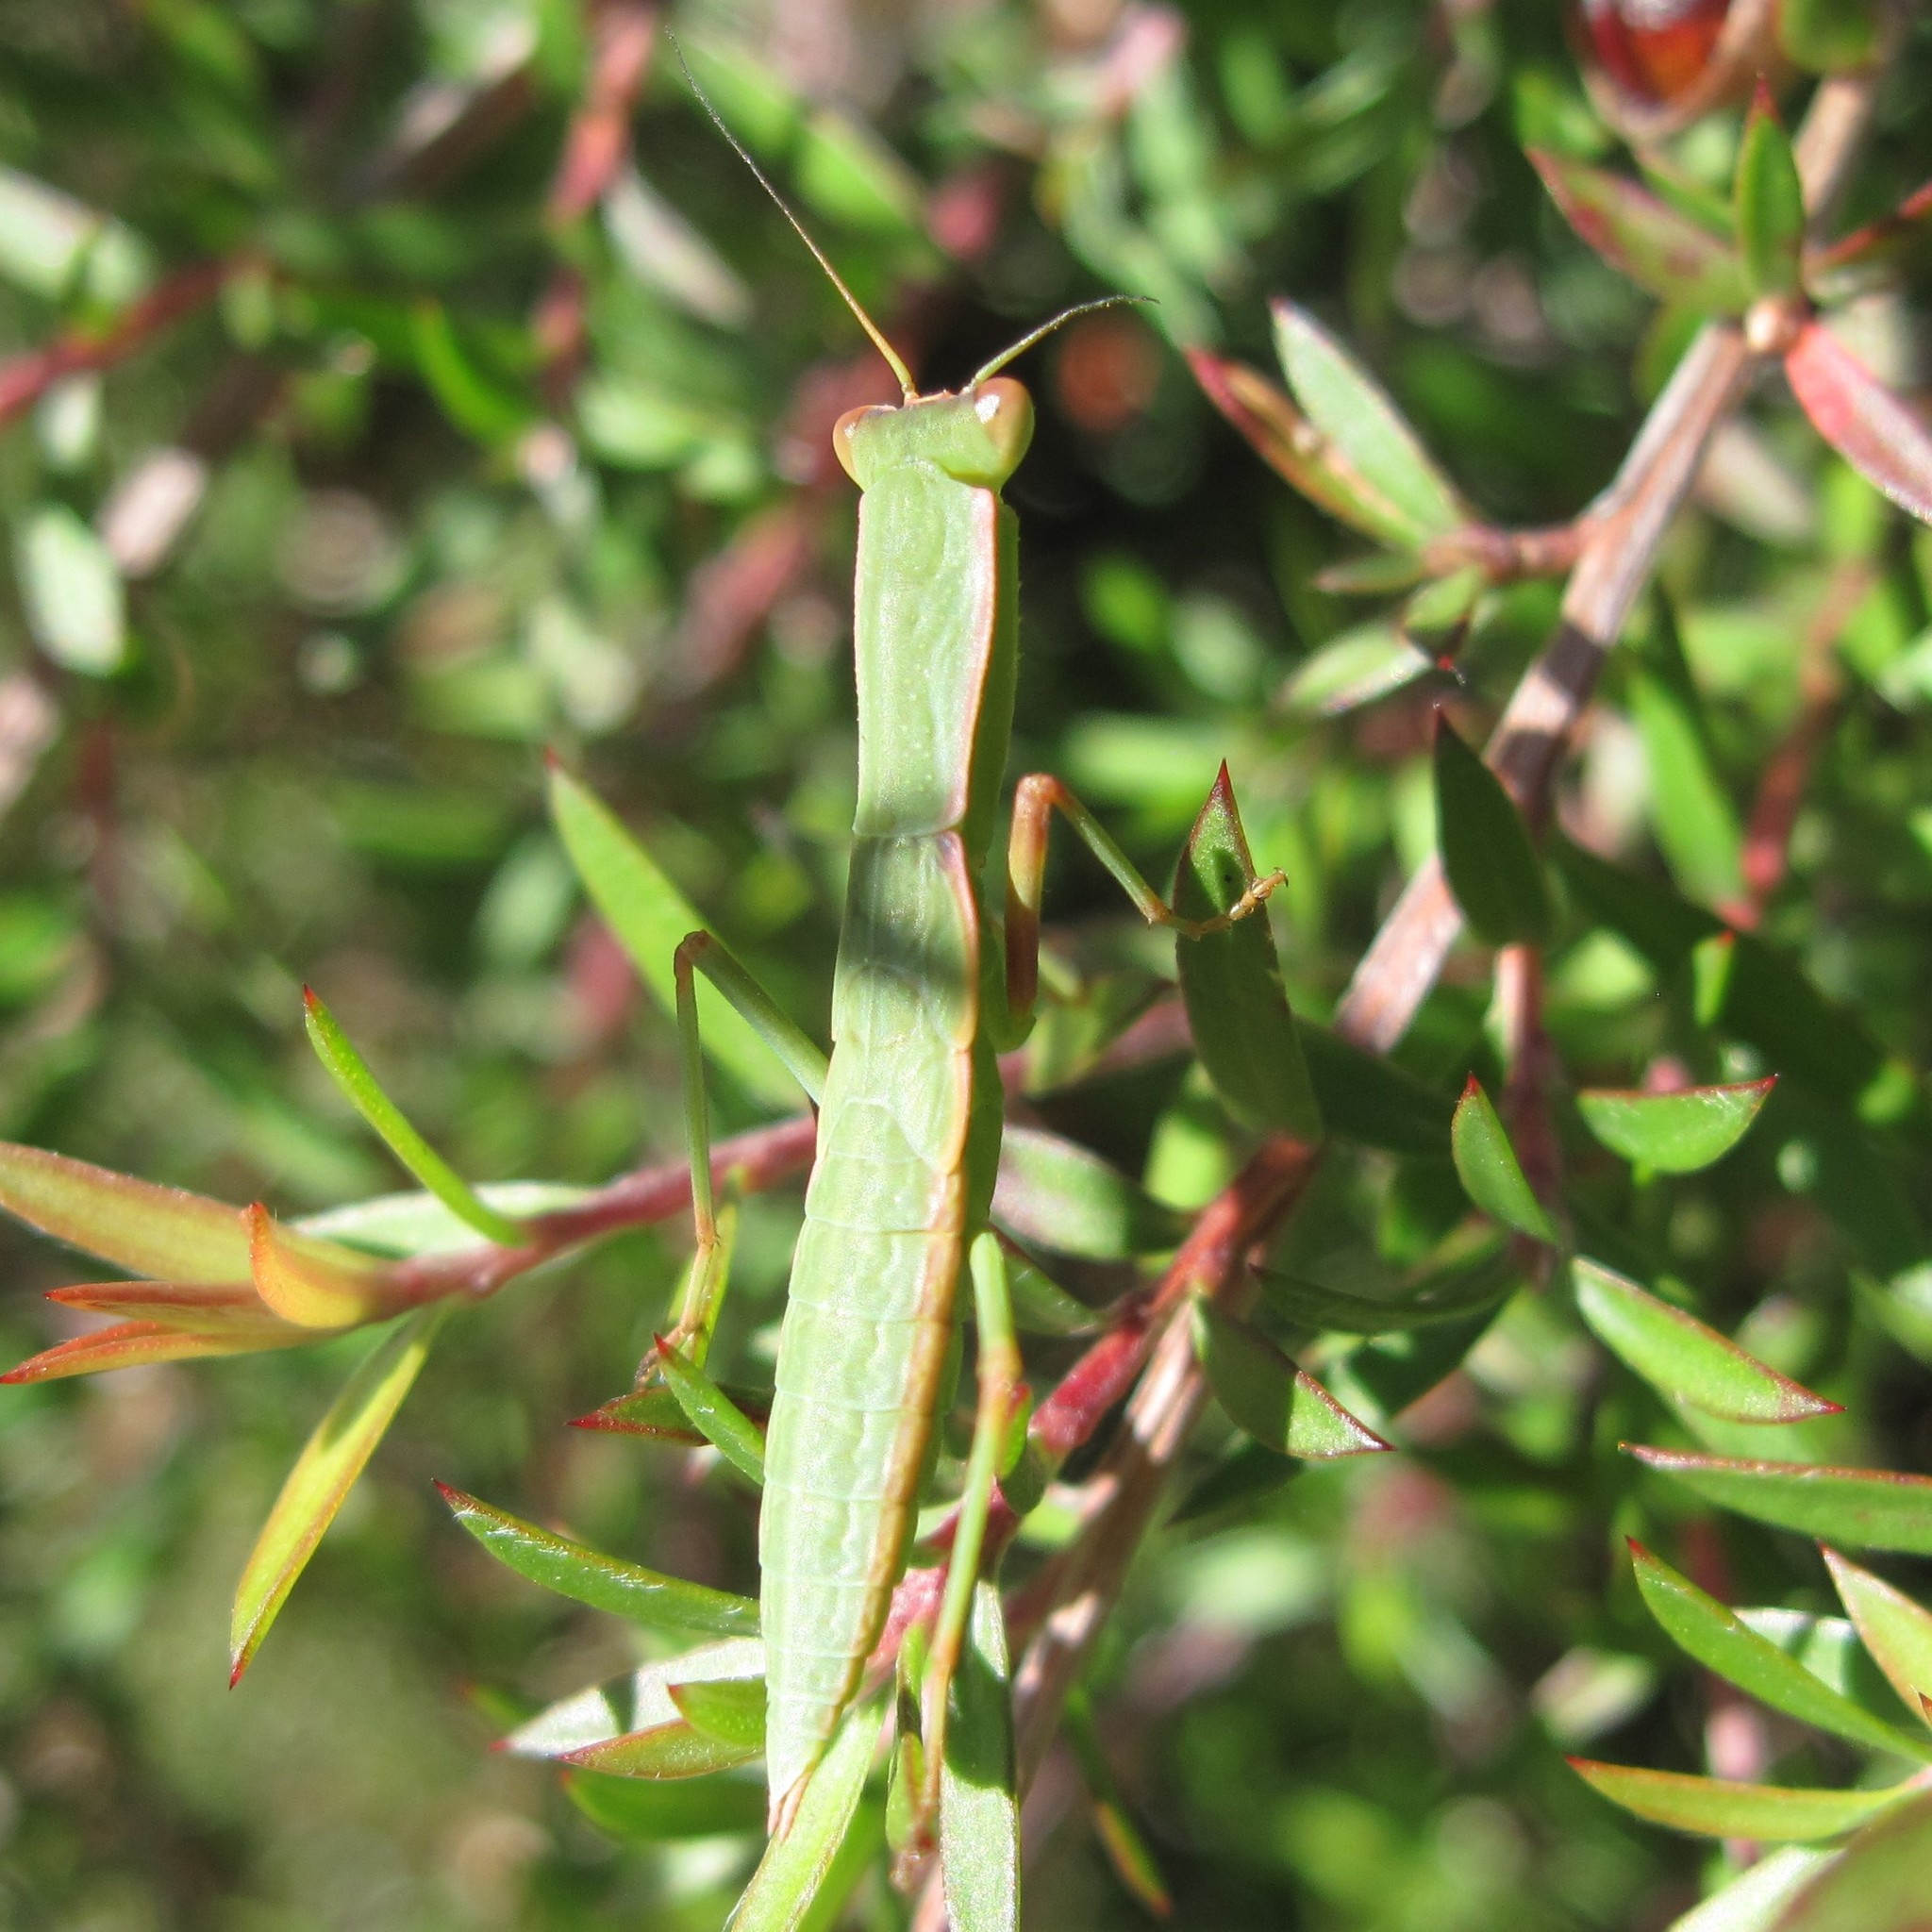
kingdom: Animalia
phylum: Arthropoda
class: Insecta
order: Mantodea
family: Mantidae
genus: Orthodera
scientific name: Orthodera novaezealandiae
